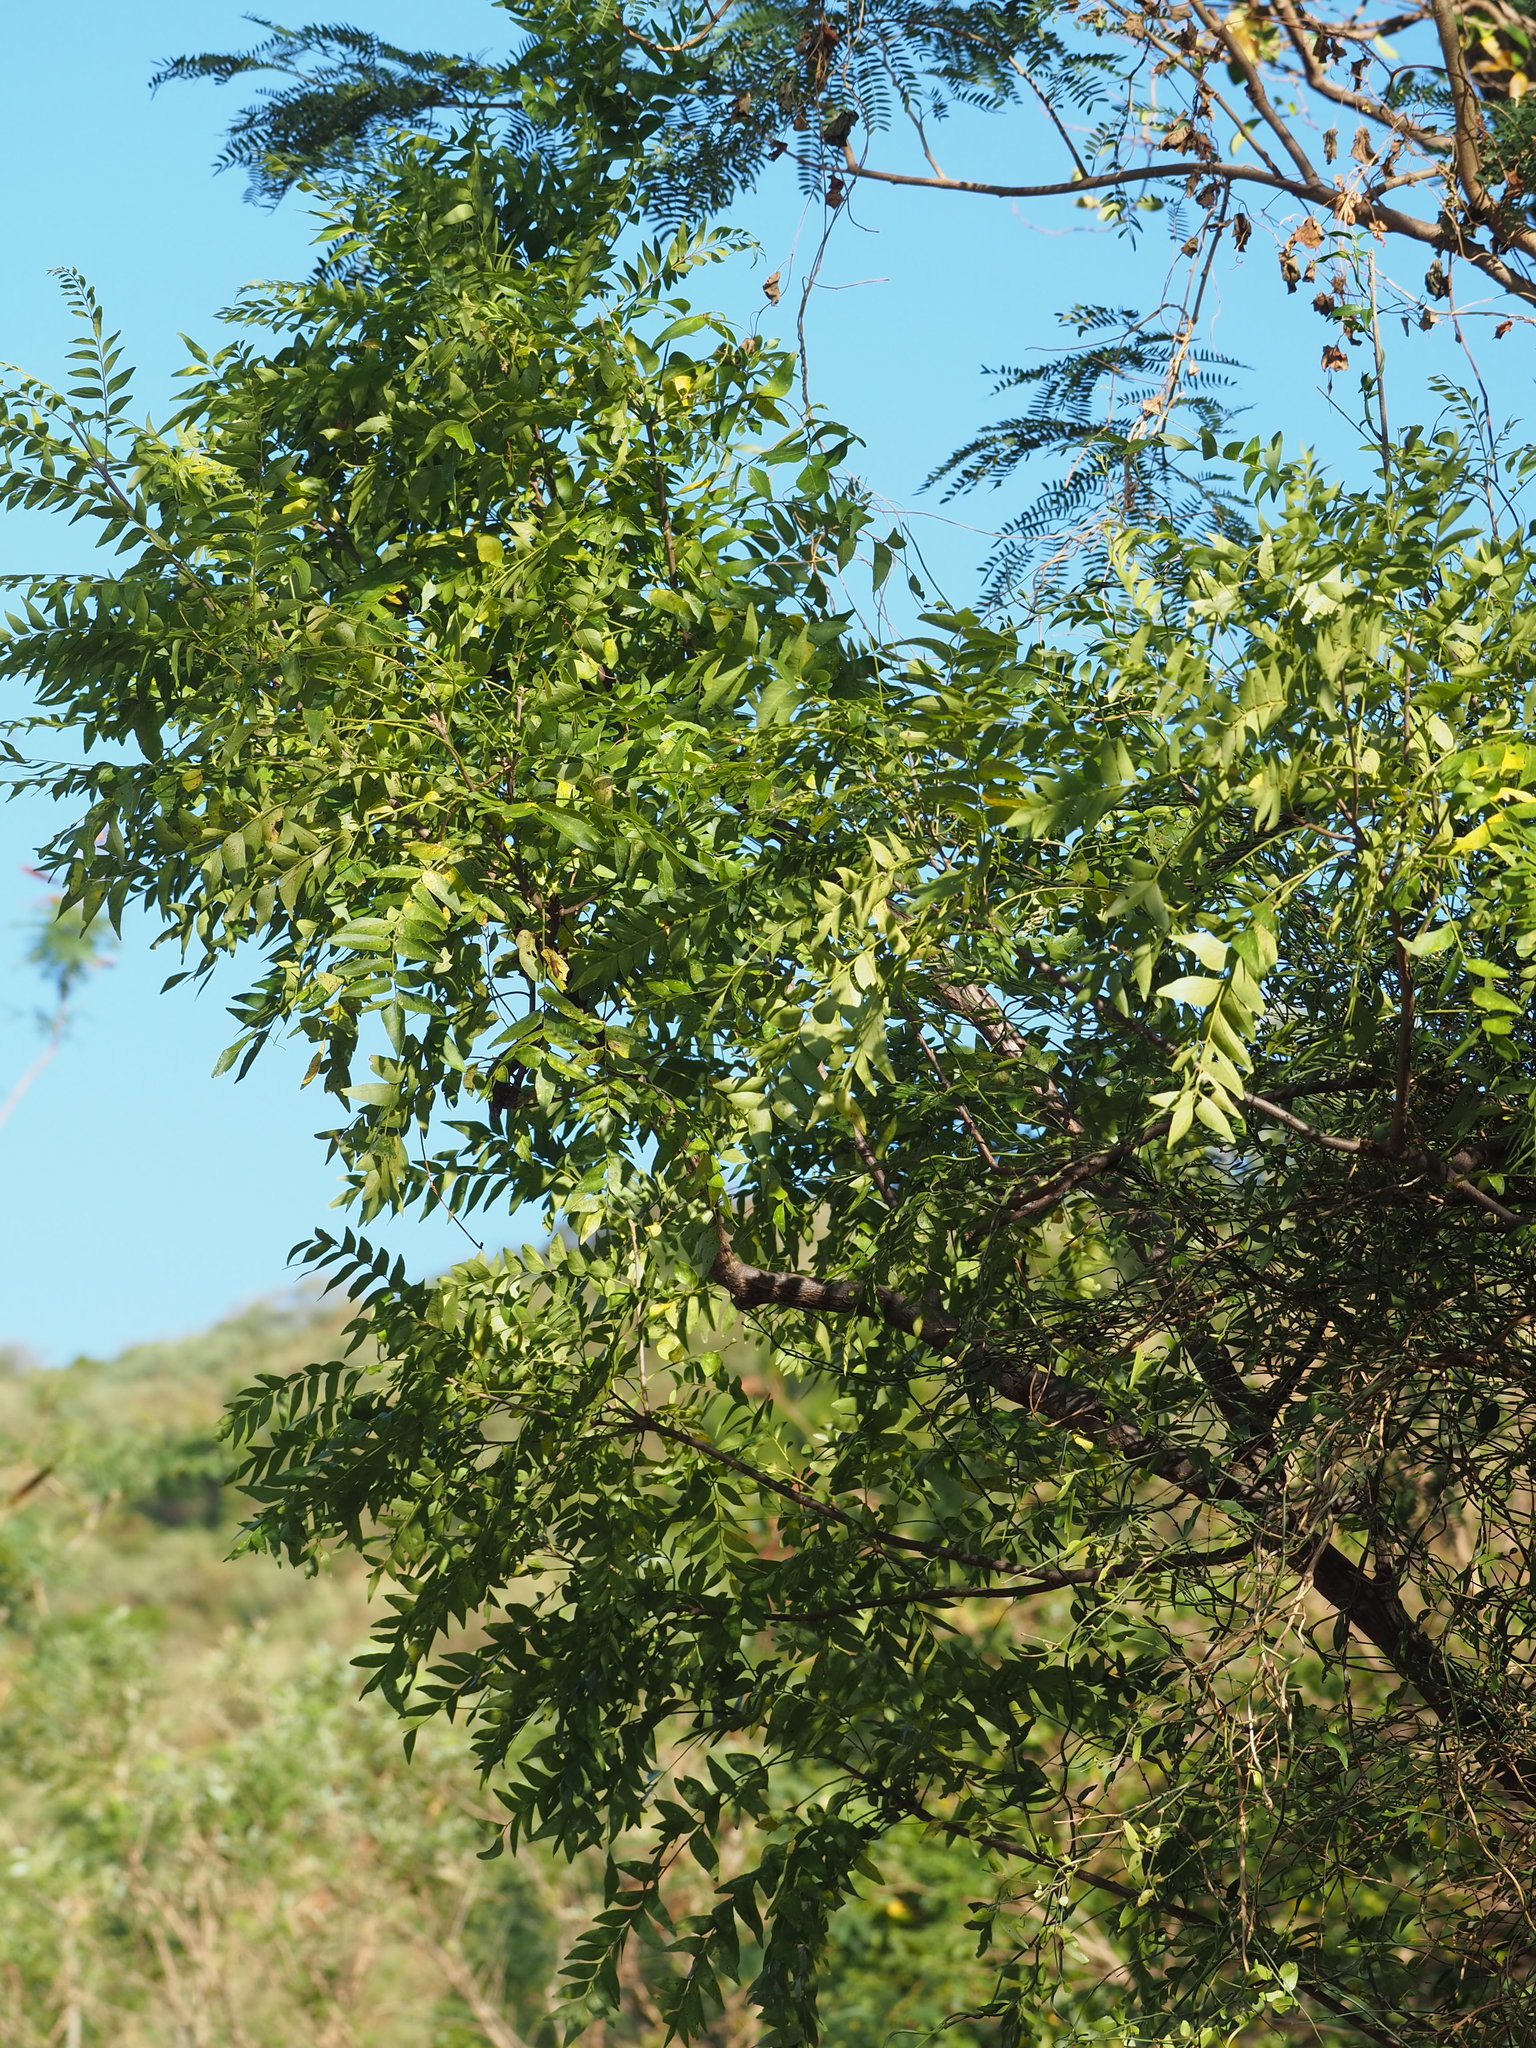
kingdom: Plantae
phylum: Tracheophyta
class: Magnoliopsida
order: Sapindales
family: Rutaceae
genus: Clausena
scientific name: Clausena excavata
